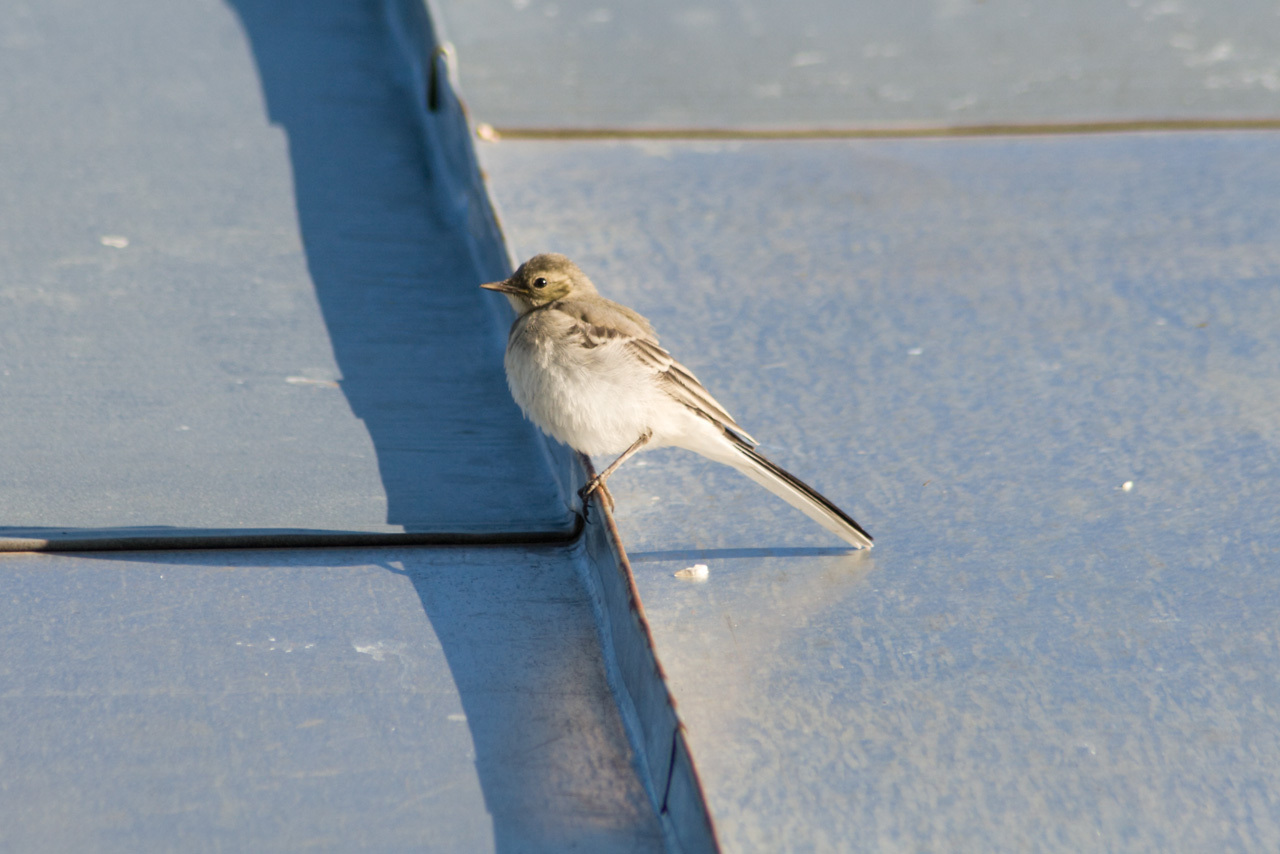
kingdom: Animalia
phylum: Chordata
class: Aves
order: Passeriformes
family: Motacillidae
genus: Motacilla
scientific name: Motacilla alba
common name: White wagtail
